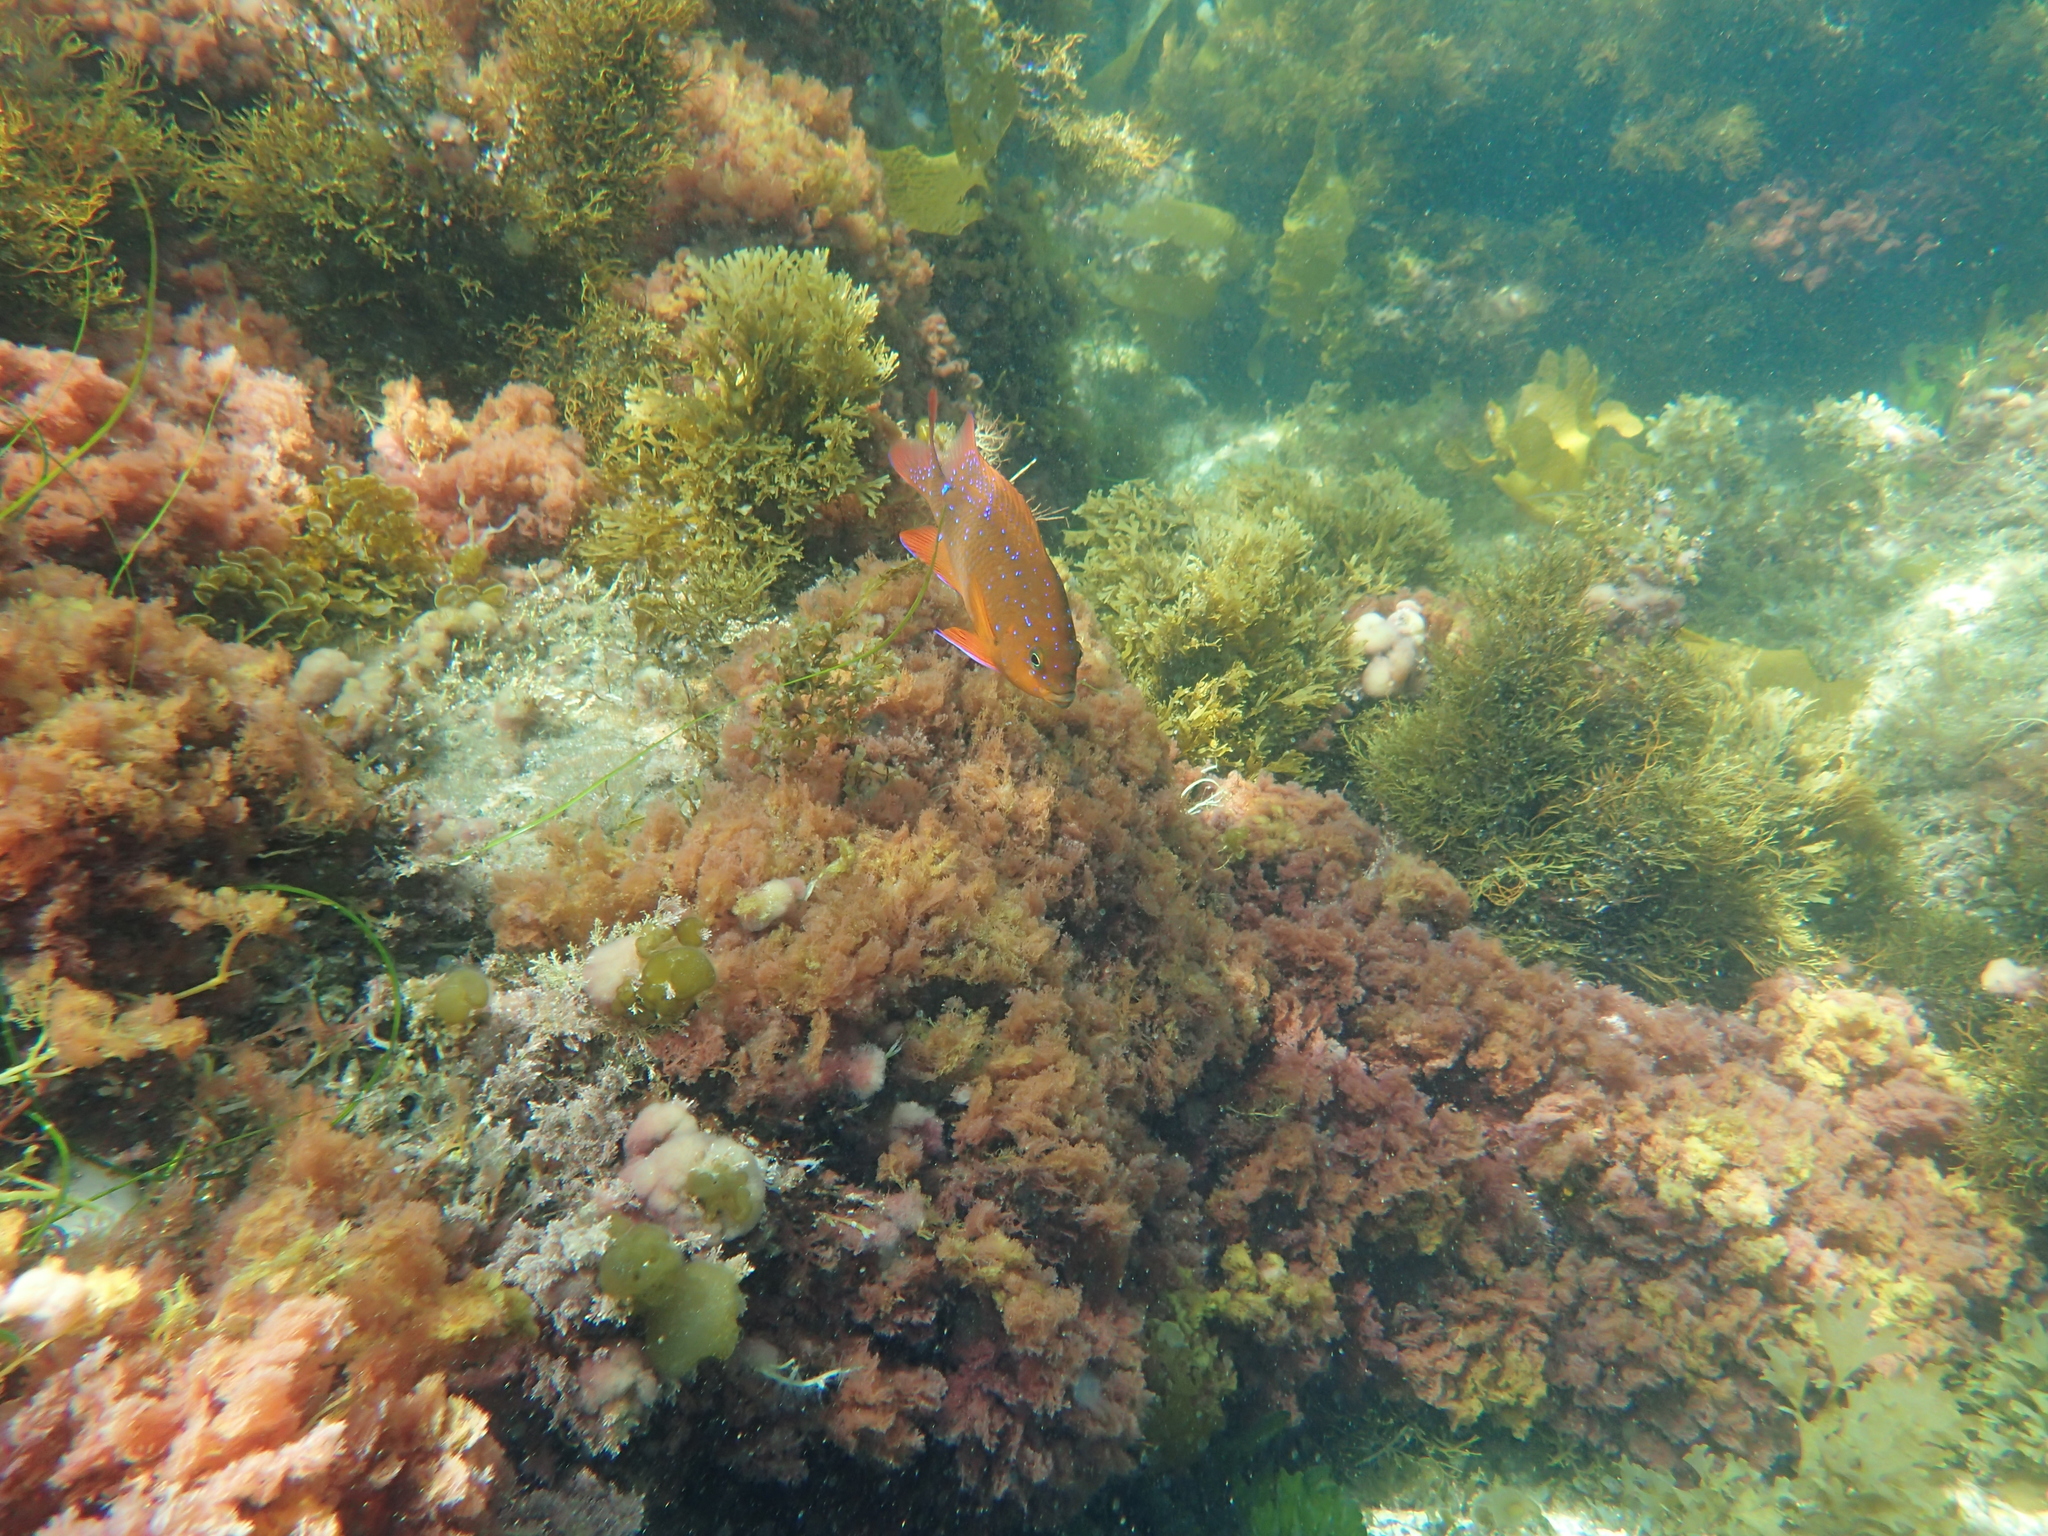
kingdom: Animalia
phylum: Chordata
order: Perciformes
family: Pomacentridae
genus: Hypsypops
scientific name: Hypsypops rubicundus
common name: Garibaldi
